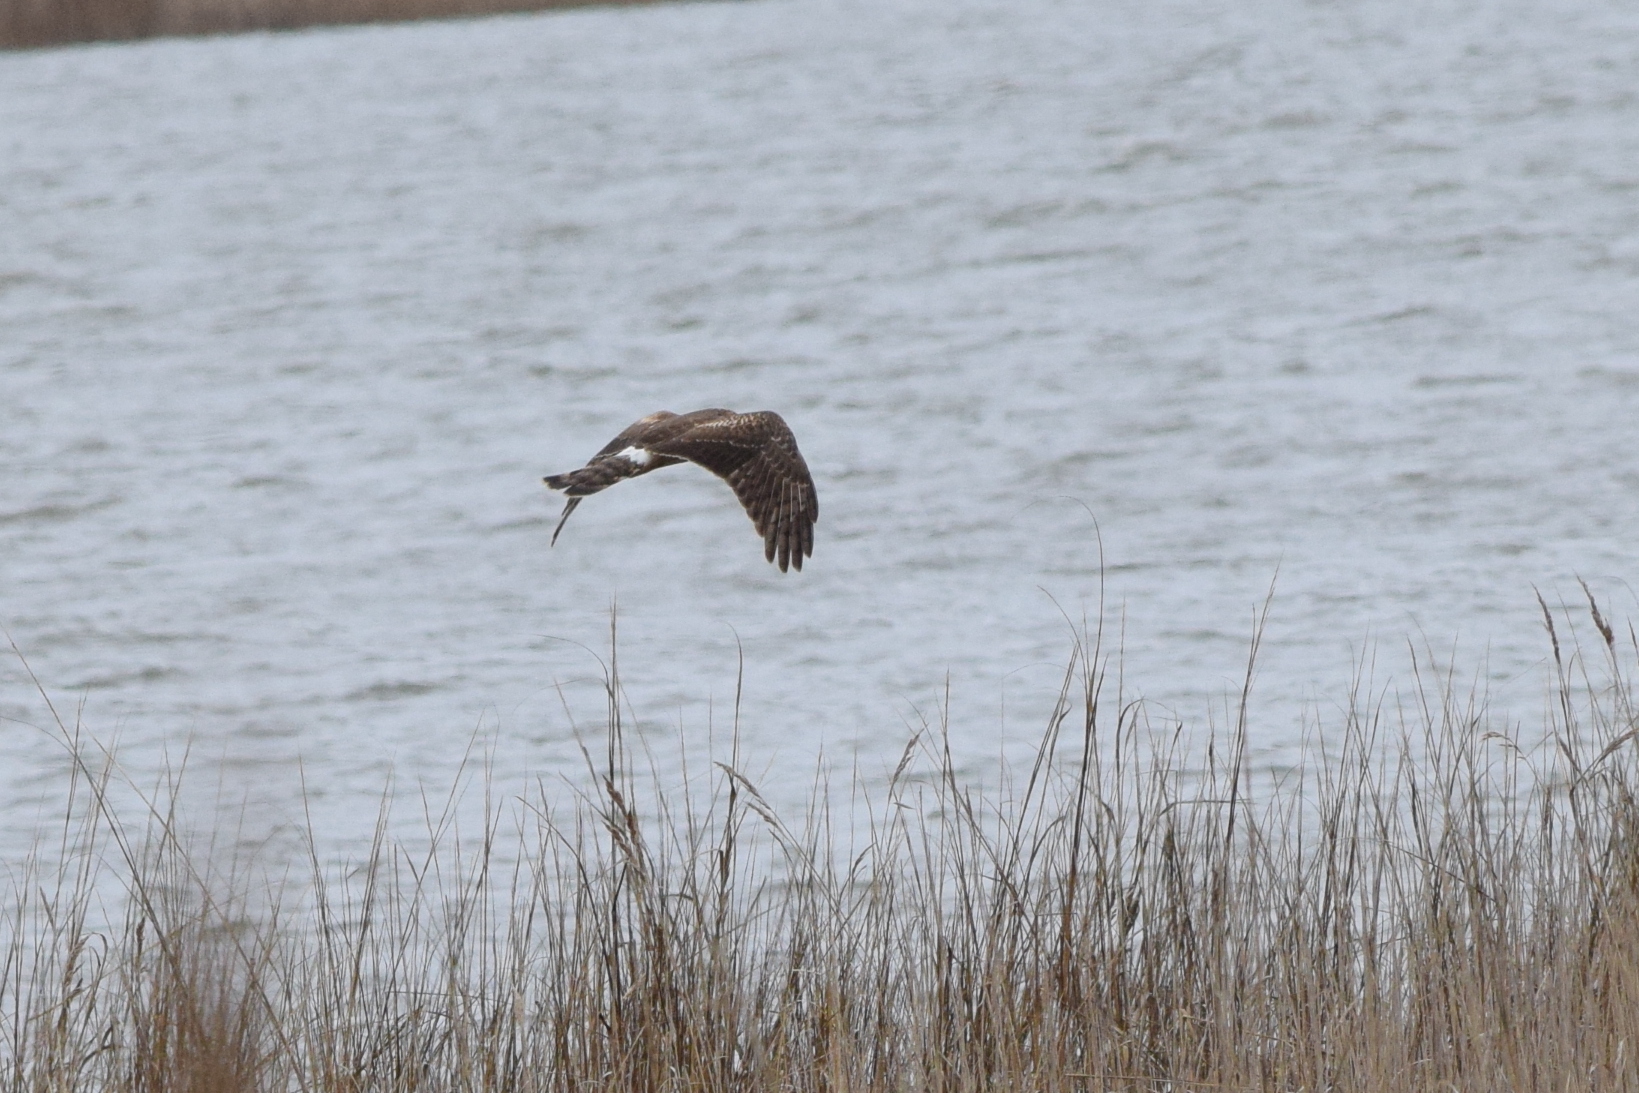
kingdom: Animalia
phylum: Chordata
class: Aves
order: Accipitriformes
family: Accipitridae
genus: Circus
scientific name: Circus cyaneus
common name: Hen harrier
